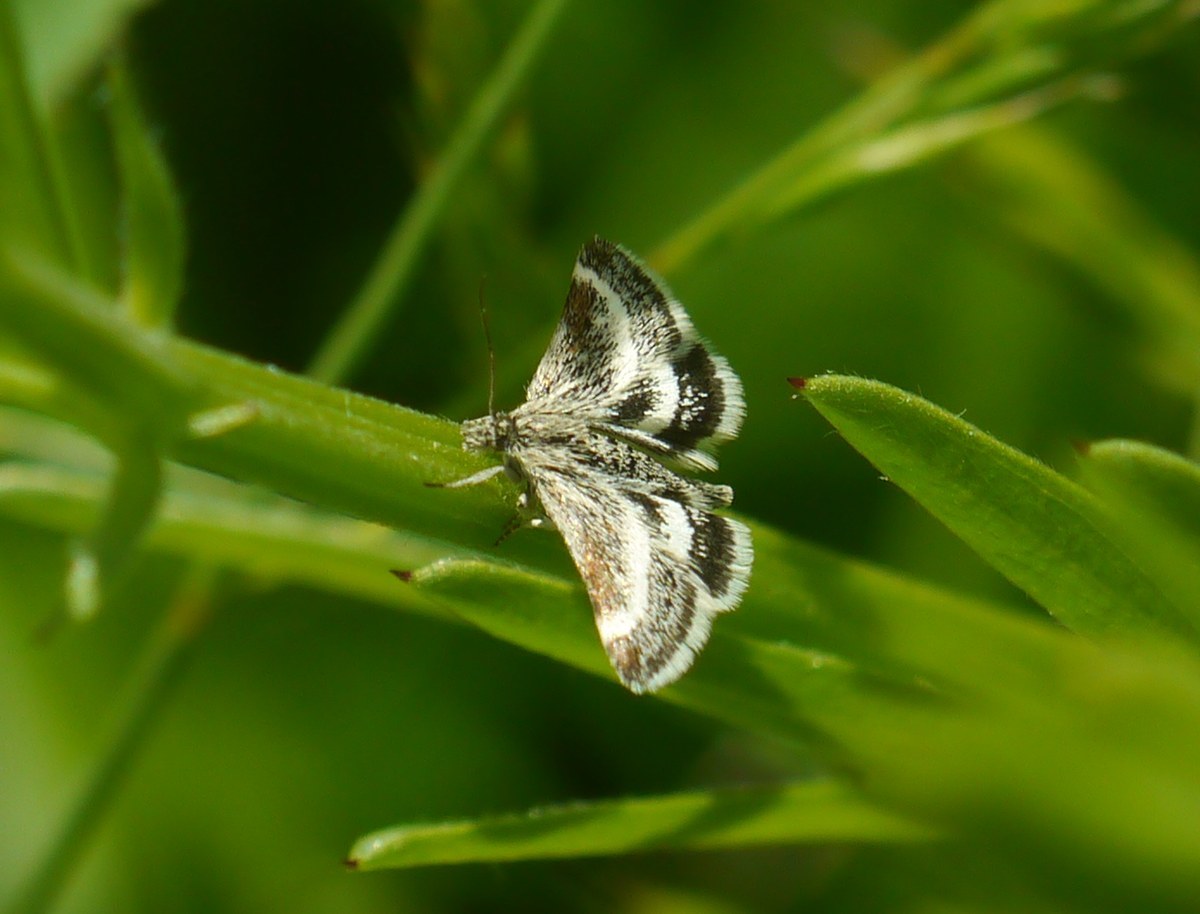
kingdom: Animalia
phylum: Arthropoda
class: Insecta
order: Lepidoptera
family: Crambidae
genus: Atralata
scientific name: Atralata albofascialis
